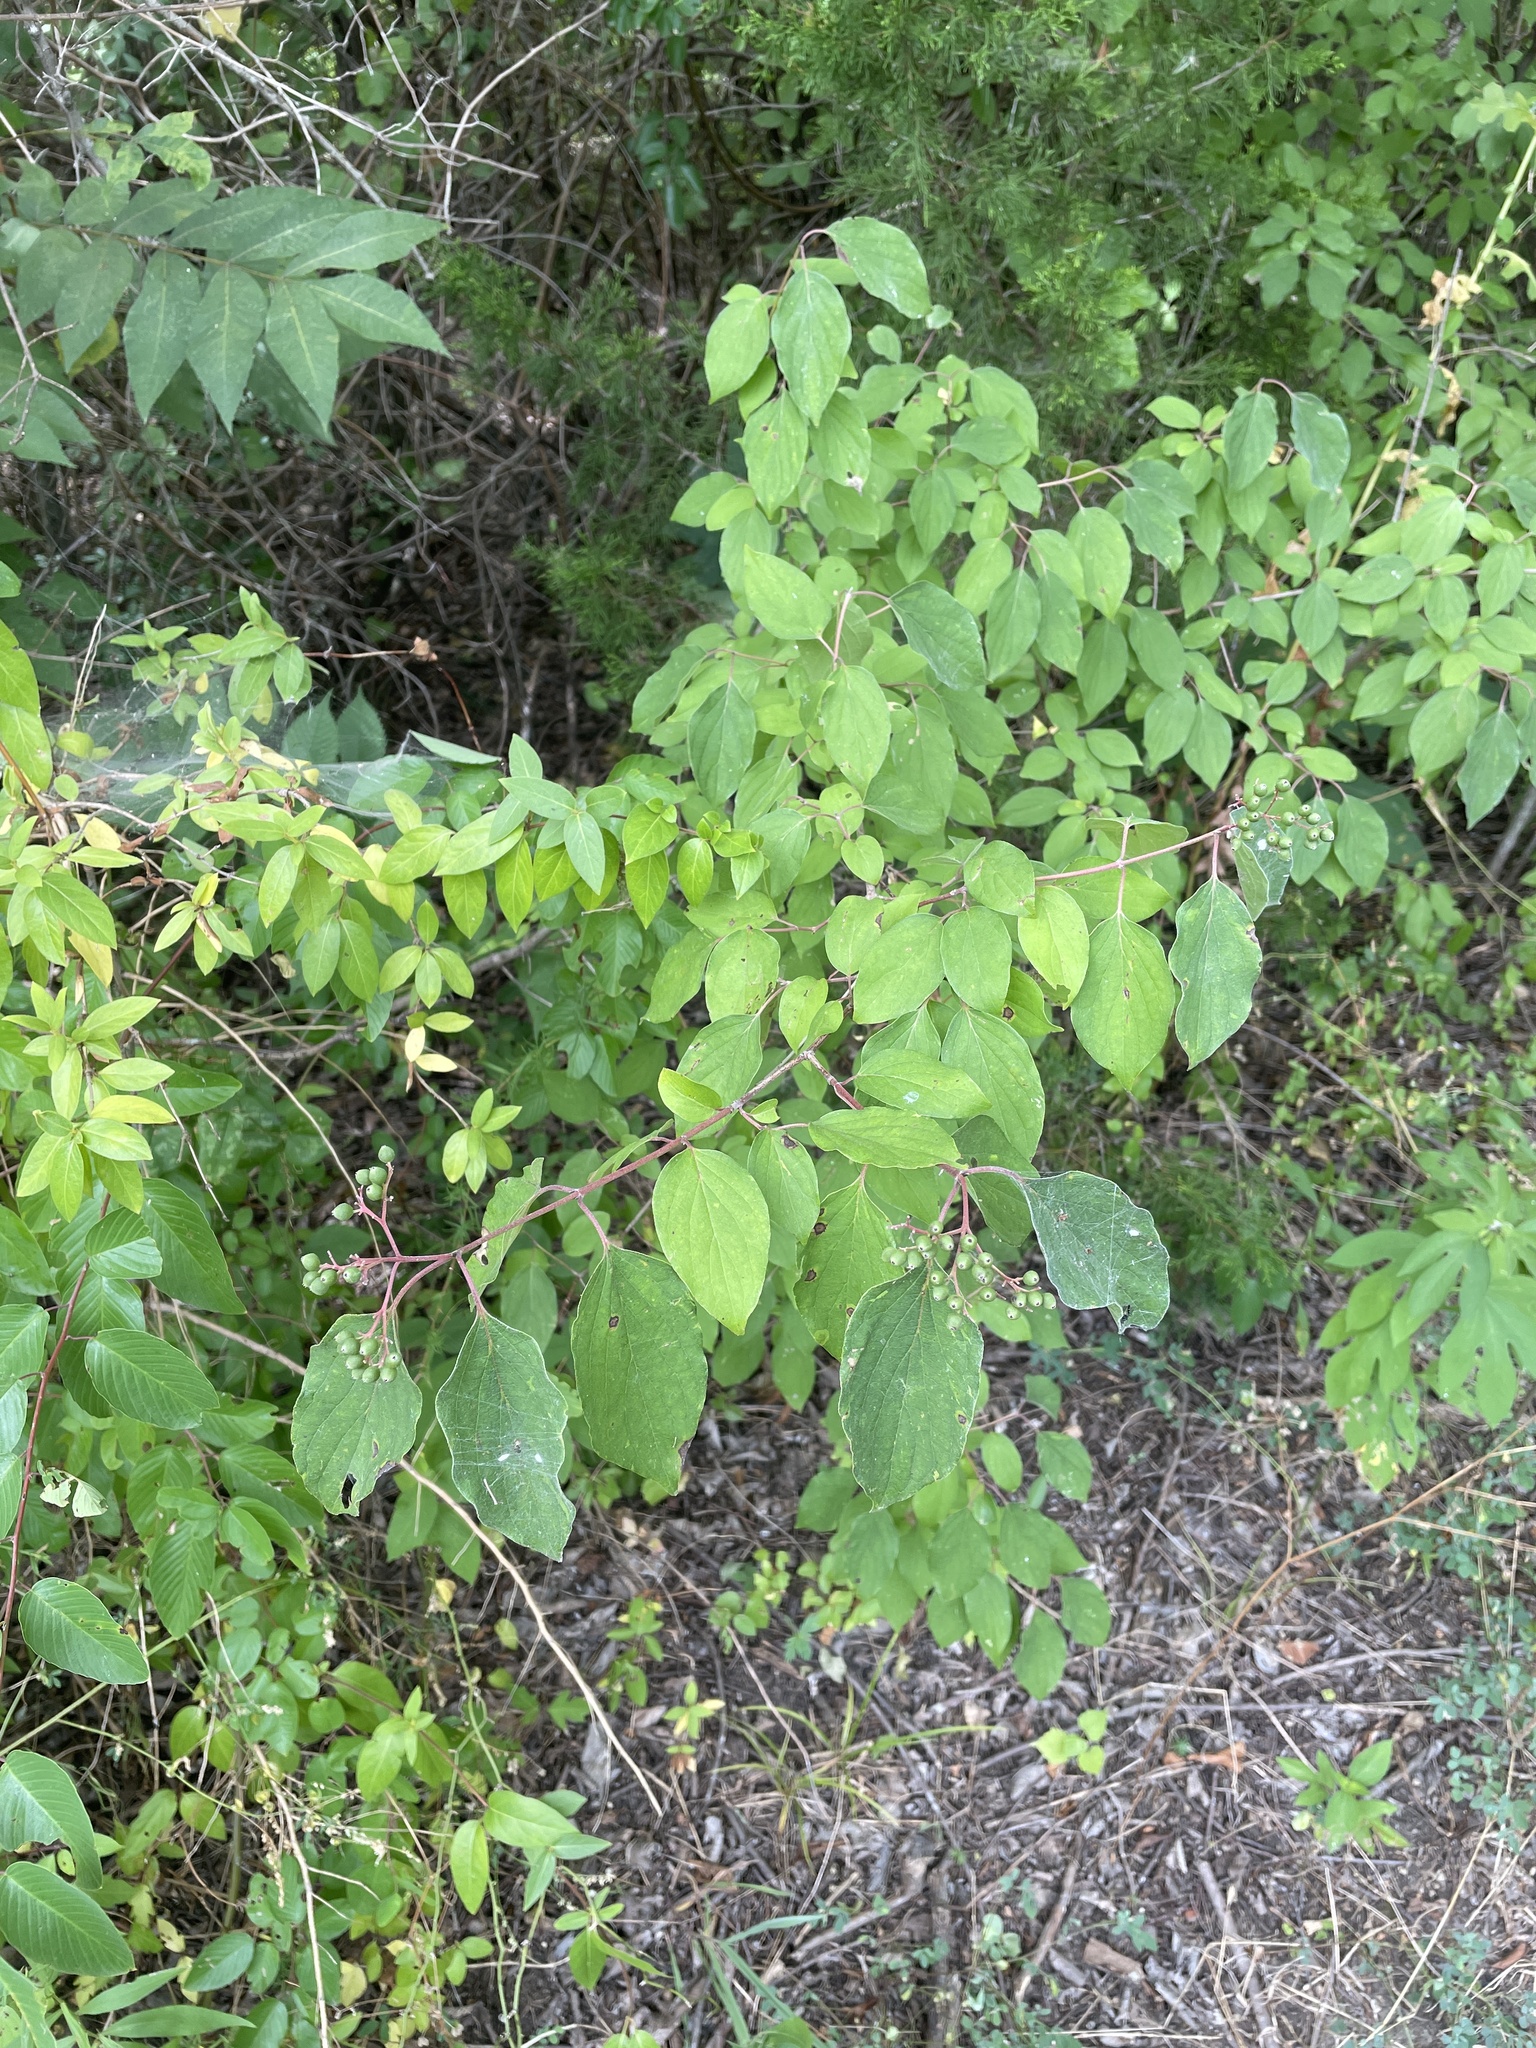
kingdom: Plantae
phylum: Tracheophyta
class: Magnoliopsida
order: Cornales
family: Cornaceae
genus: Cornus
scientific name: Cornus drummondii
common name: Rough-leaf dogwood
